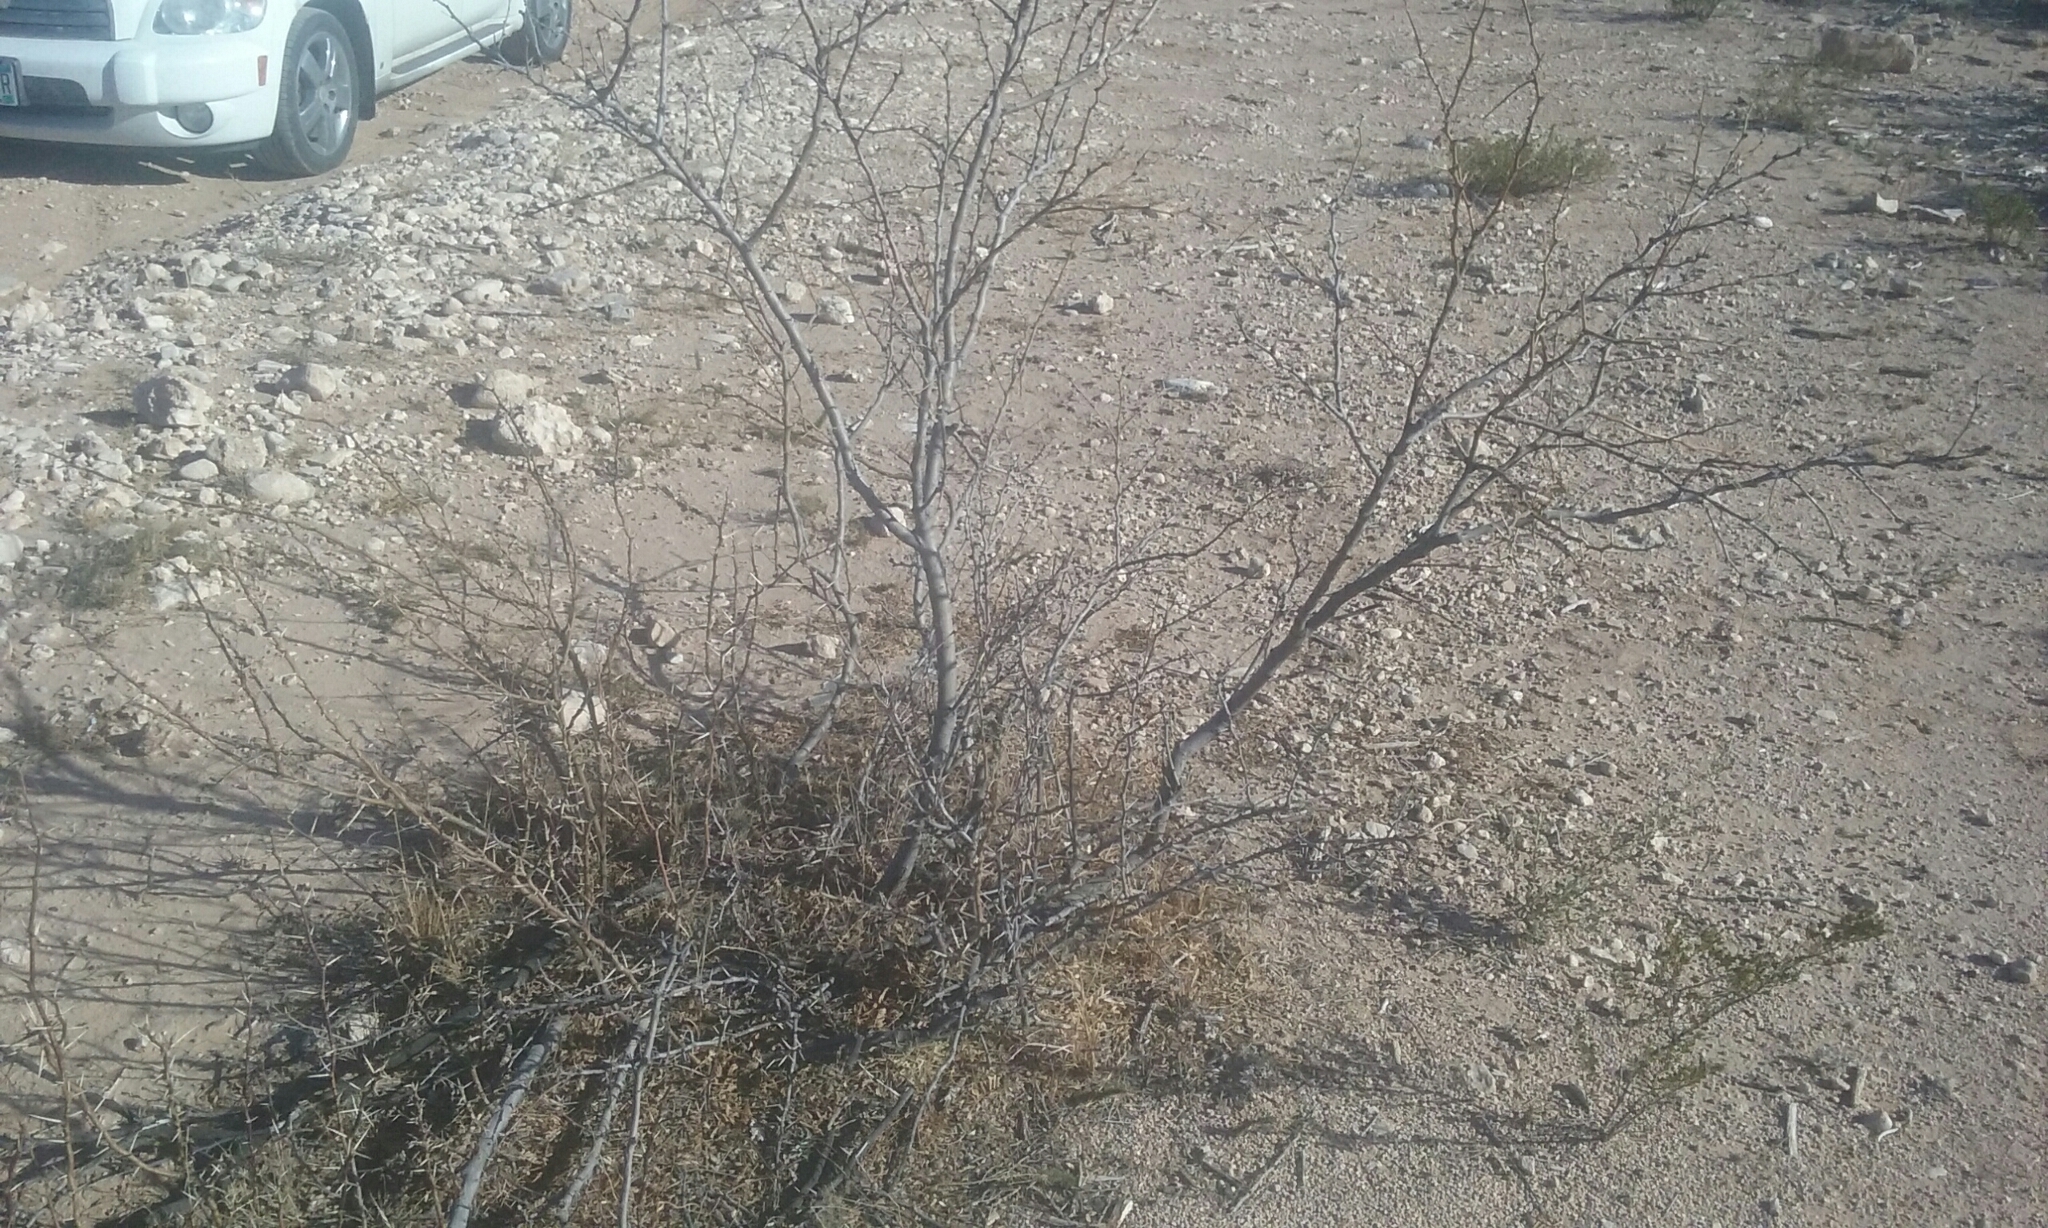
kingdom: Plantae
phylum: Tracheophyta
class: Magnoliopsida
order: Fabales
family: Fabaceae
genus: Prosopis
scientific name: Prosopis glandulosa
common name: Honey mesquite
